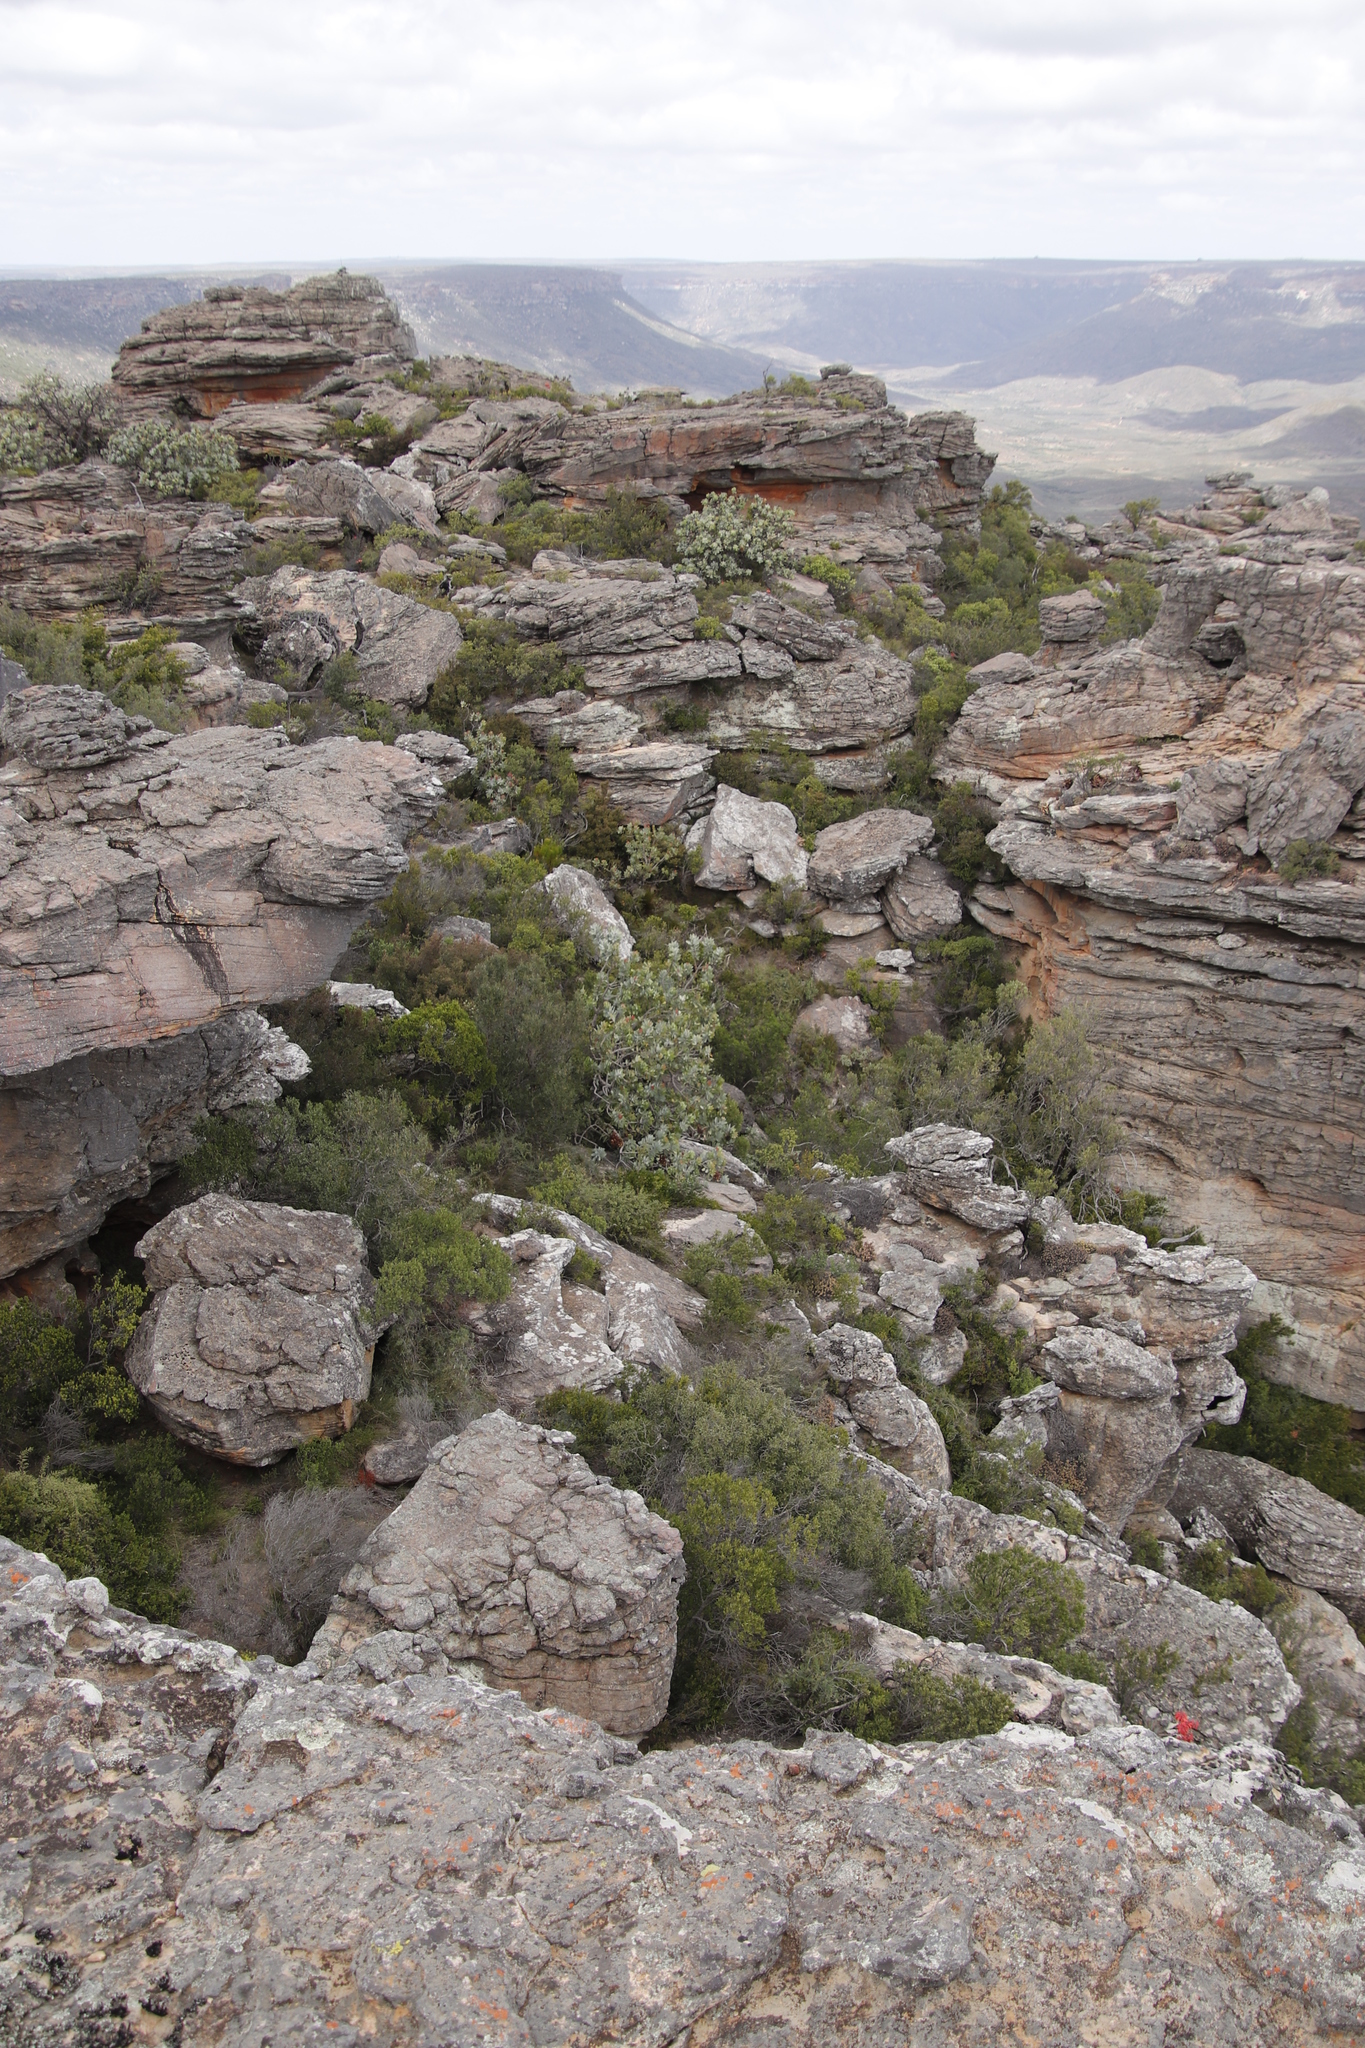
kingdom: Plantae
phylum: Tracheophyta
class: Magnoliopsida
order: Proteales
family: Proteaceae
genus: Protea
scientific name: Protea nitida
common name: Tree protea
